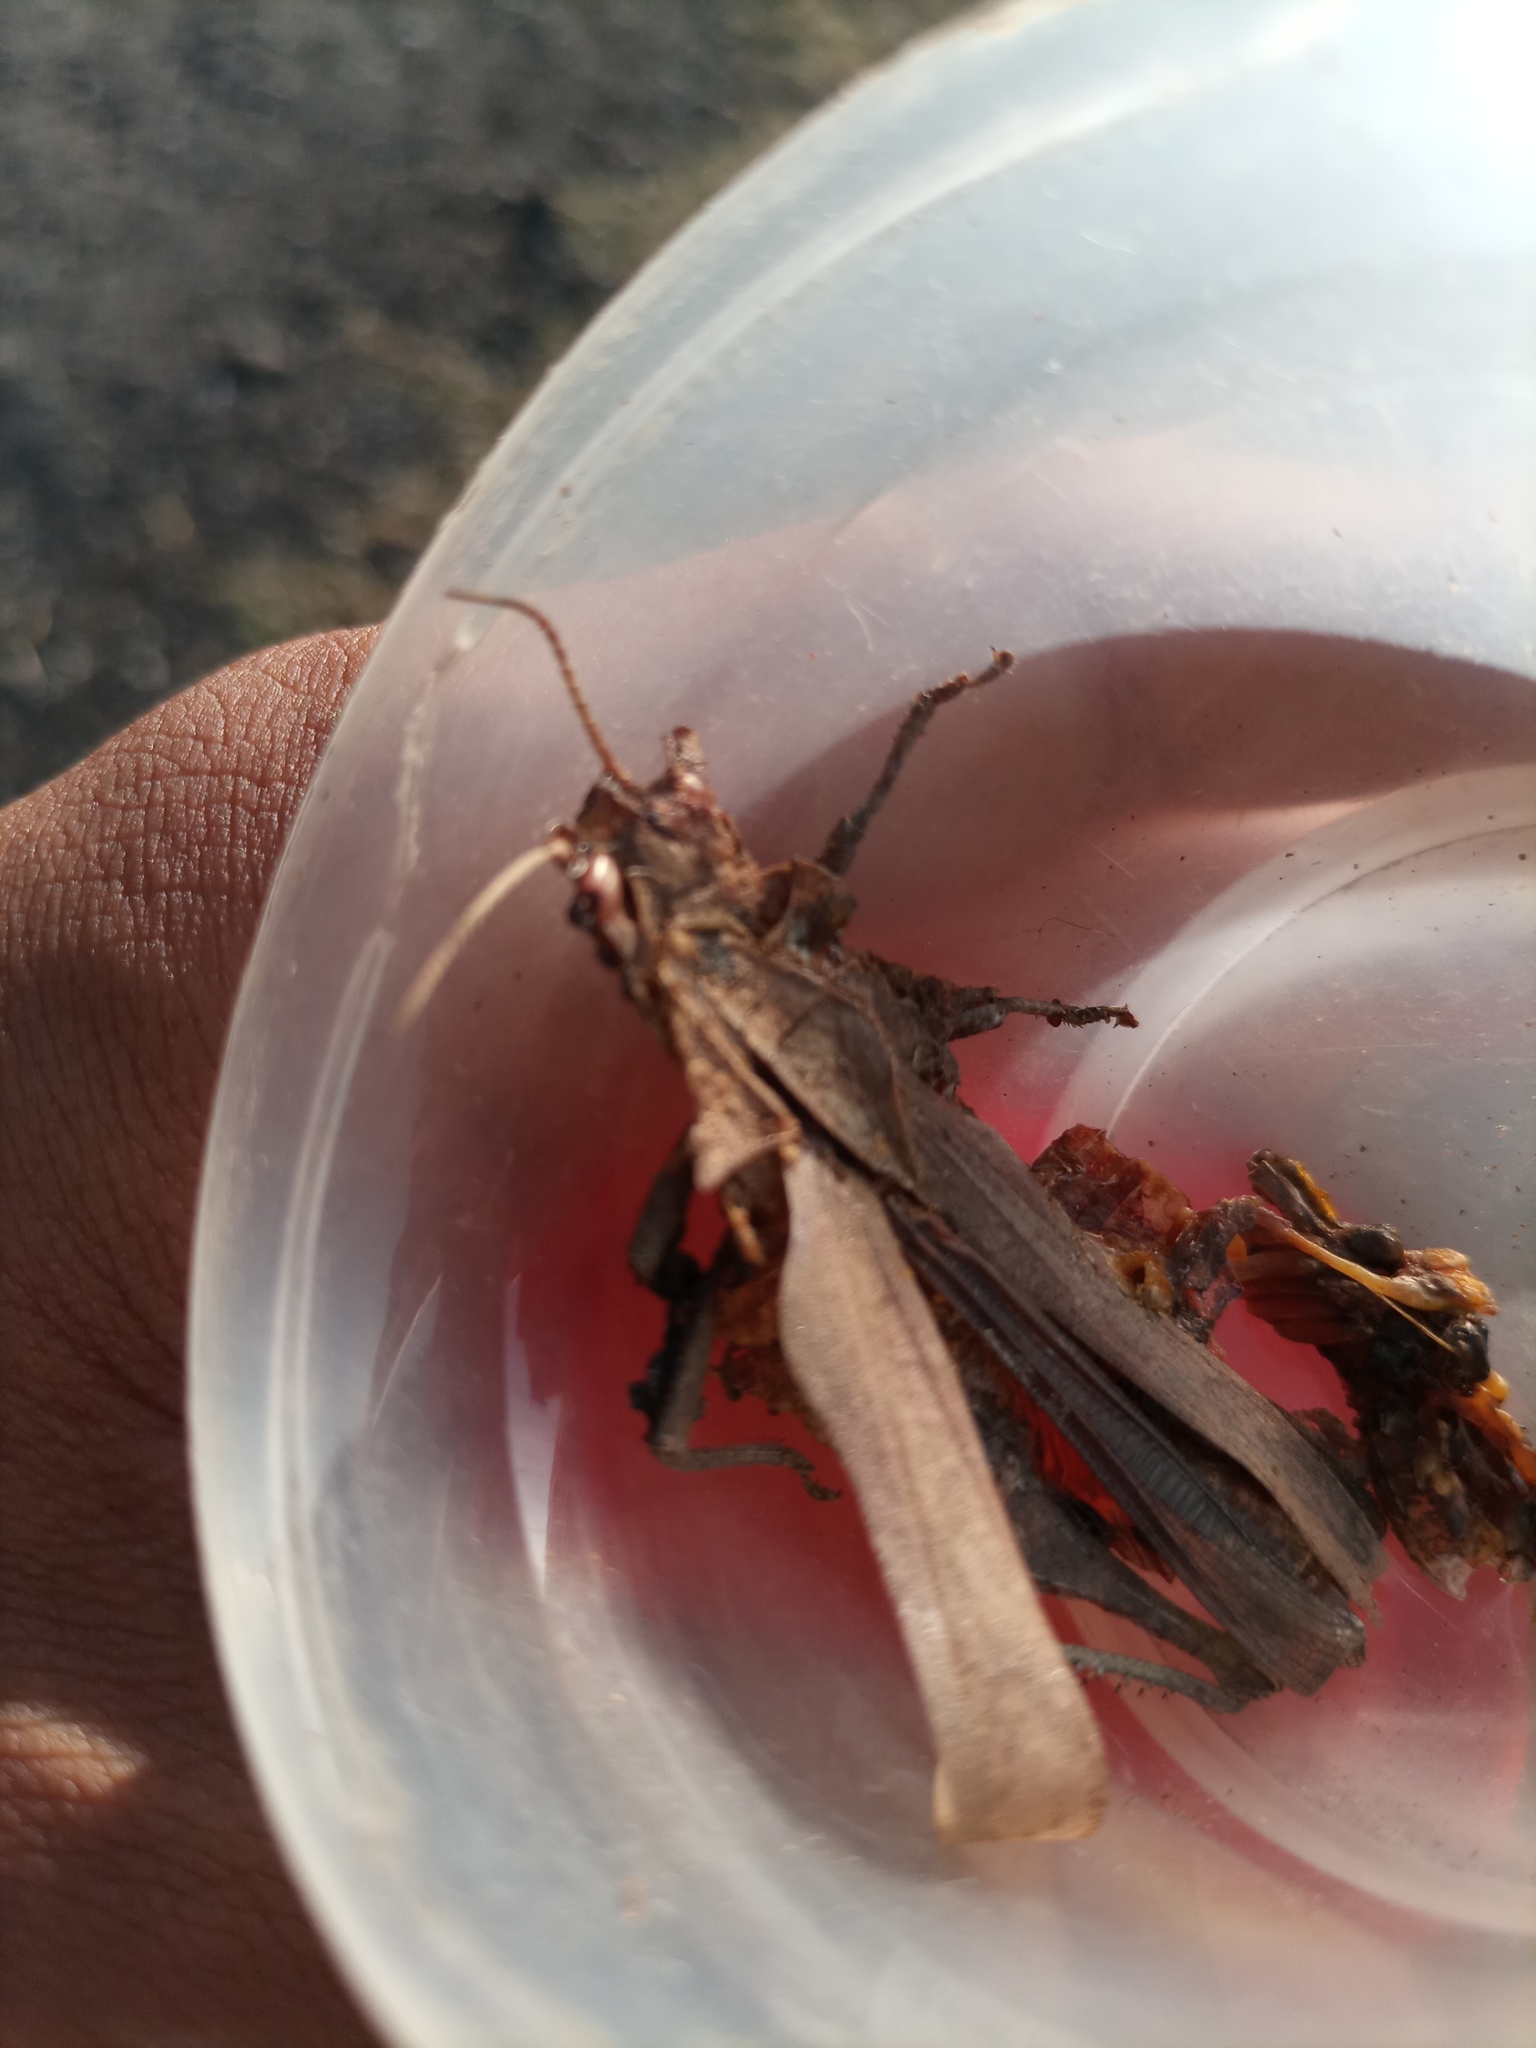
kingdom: Animalia
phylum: Arthropoda
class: Insecta
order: Orthoptera
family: Romaleidae
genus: Xyleus
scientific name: Xyleus discoideus
